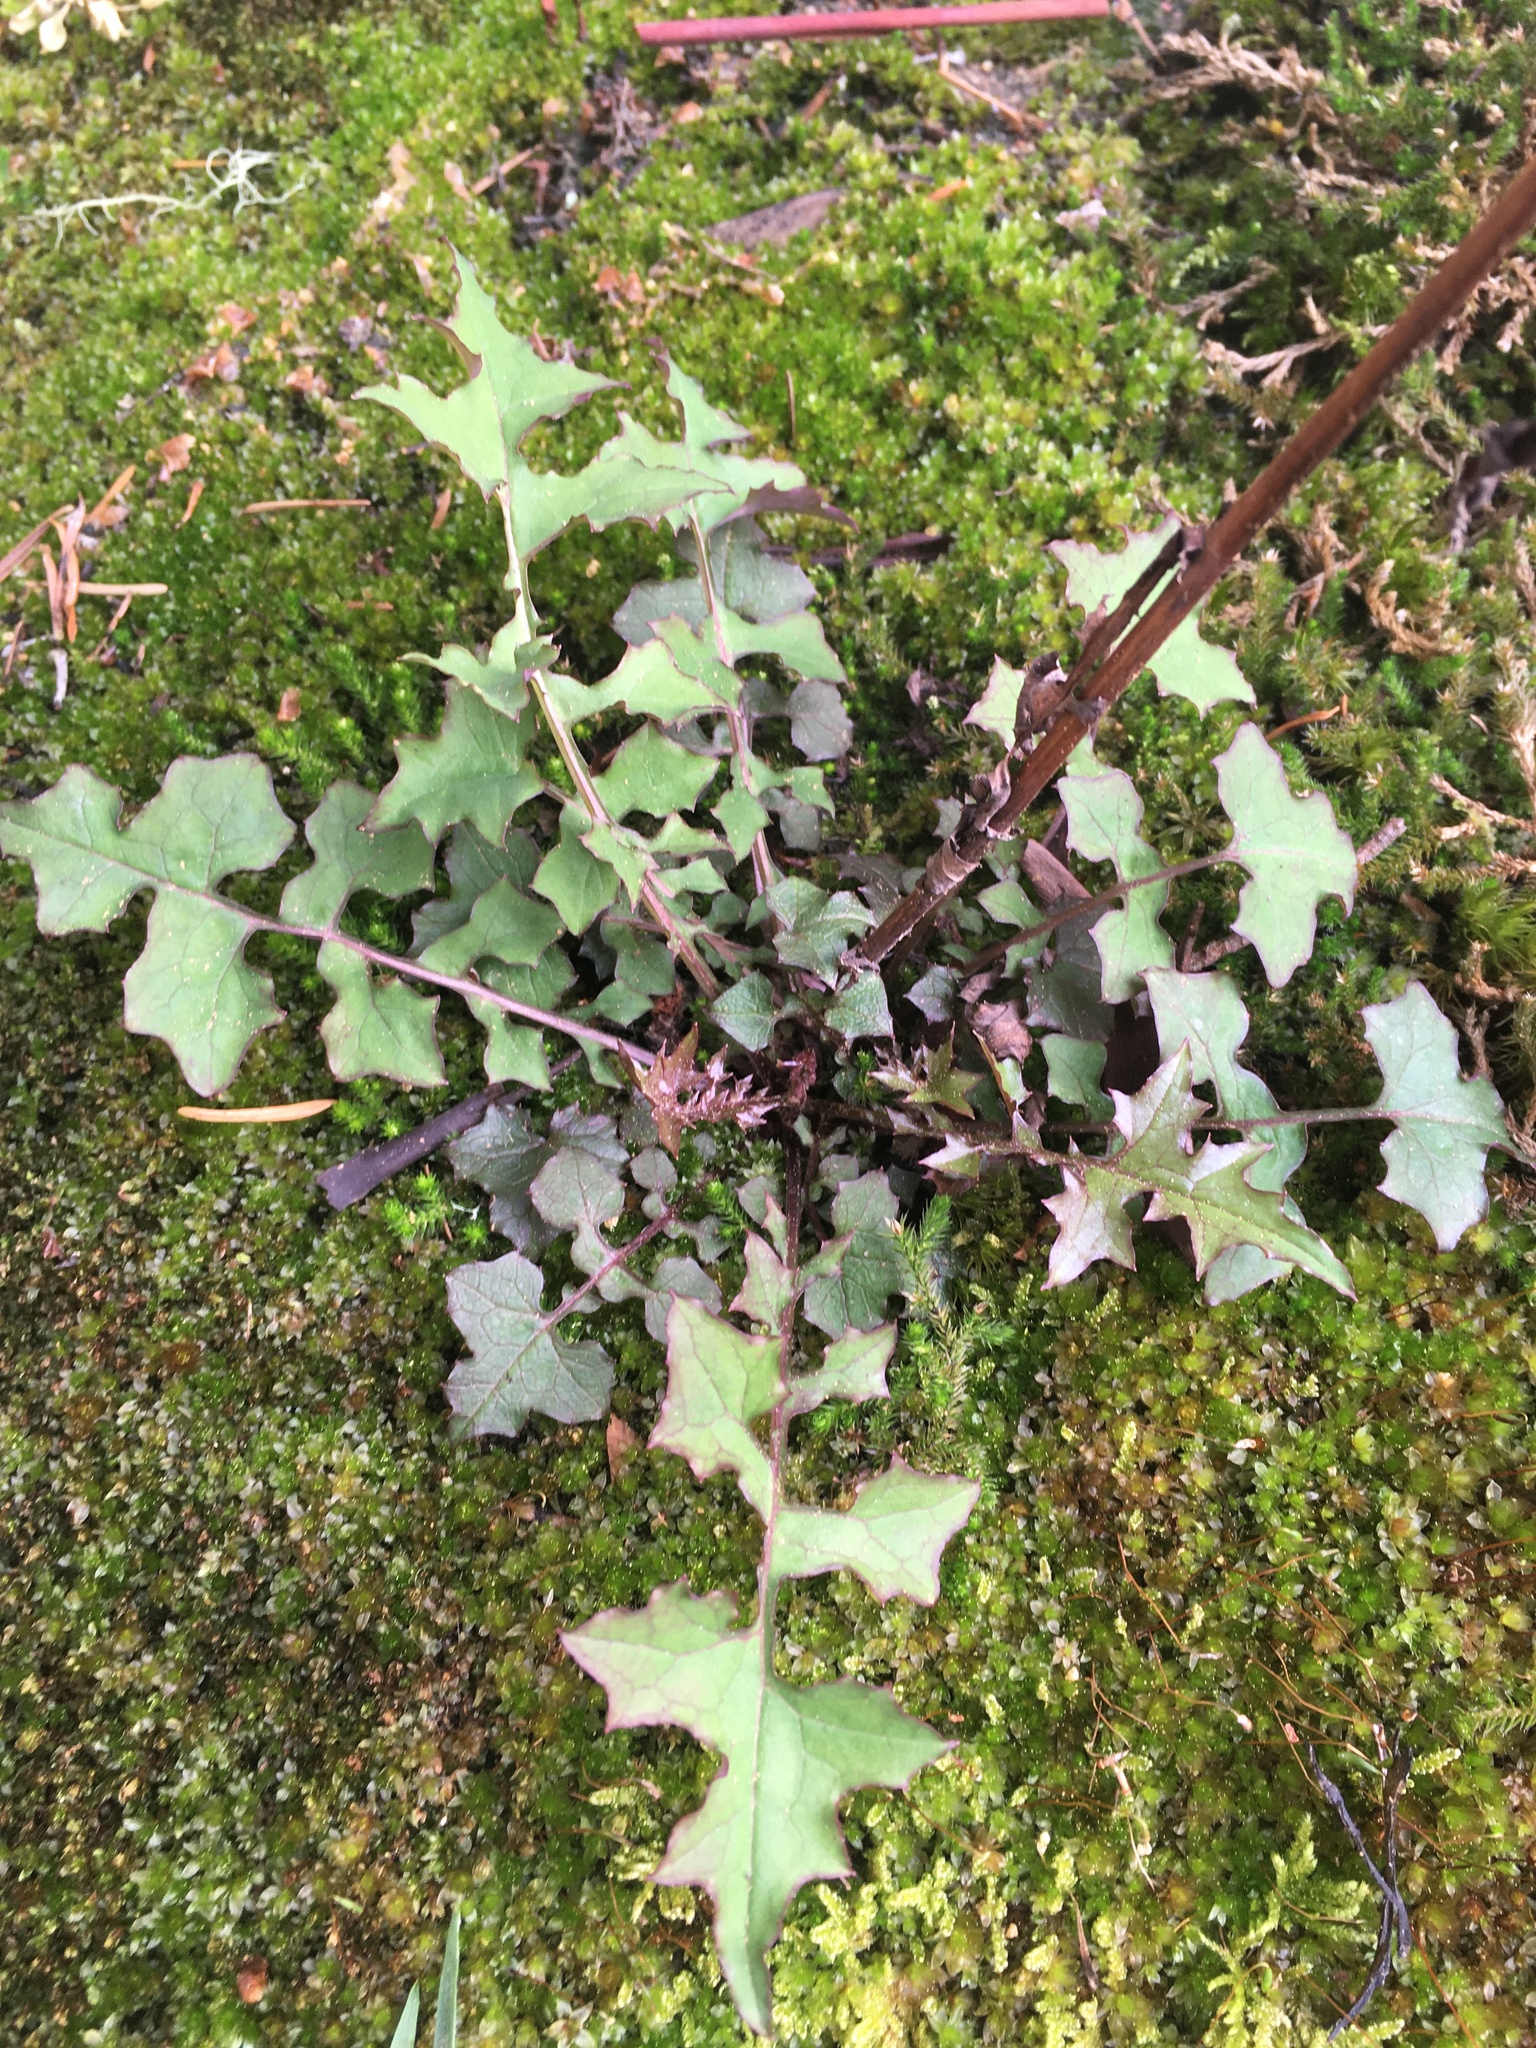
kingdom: Plantae
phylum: Tracheophyta
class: Magnoliopsida
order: Asterales
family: Asteraceae
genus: Mycelis
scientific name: Mycelis muralis
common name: Wall lettuce
